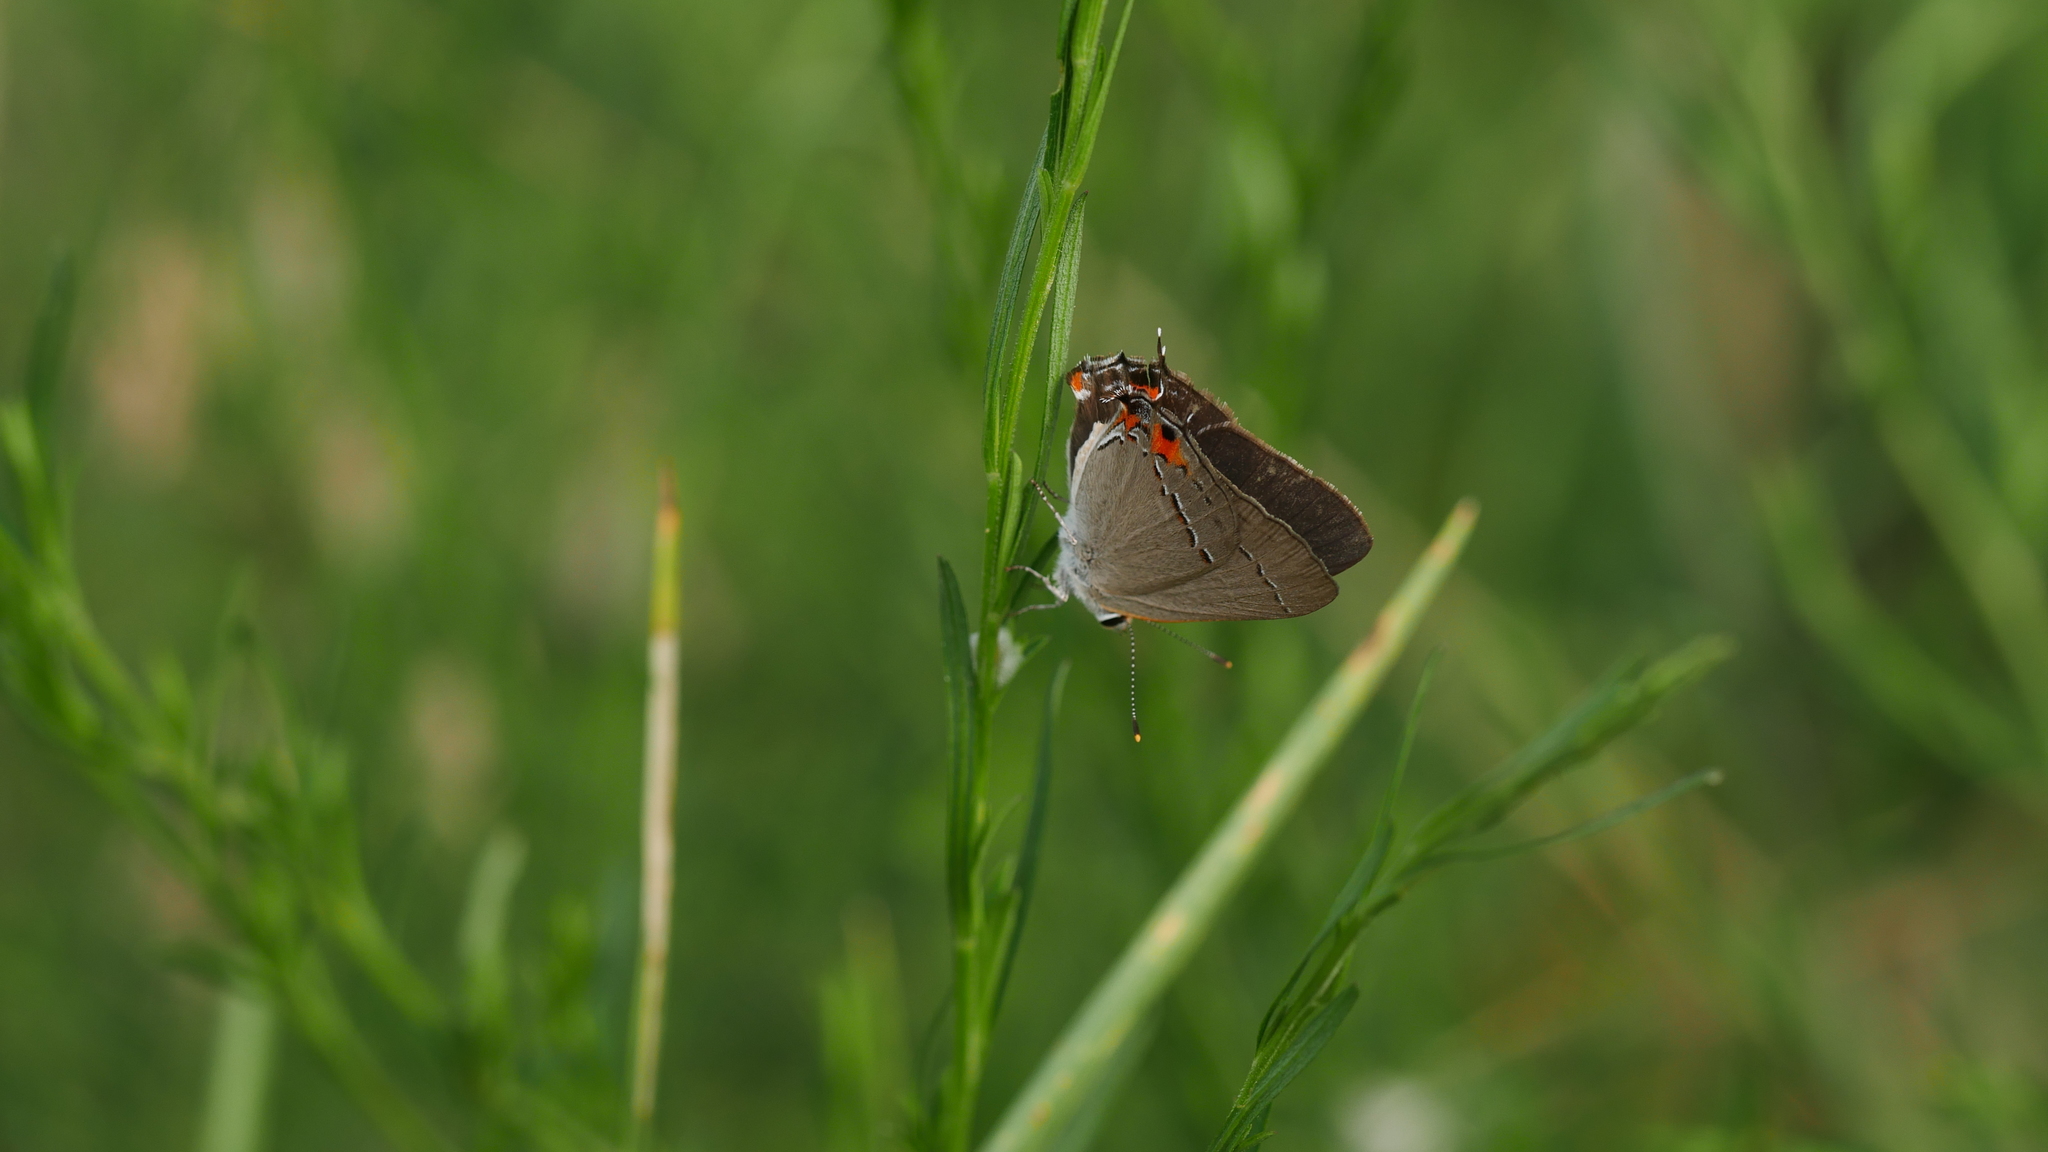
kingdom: Animalia
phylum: Arthropoda
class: Insecta
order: Lepidoptera
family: Lycaenidae
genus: Strymon
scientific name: Strymon melinus
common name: Gray hairstreak
